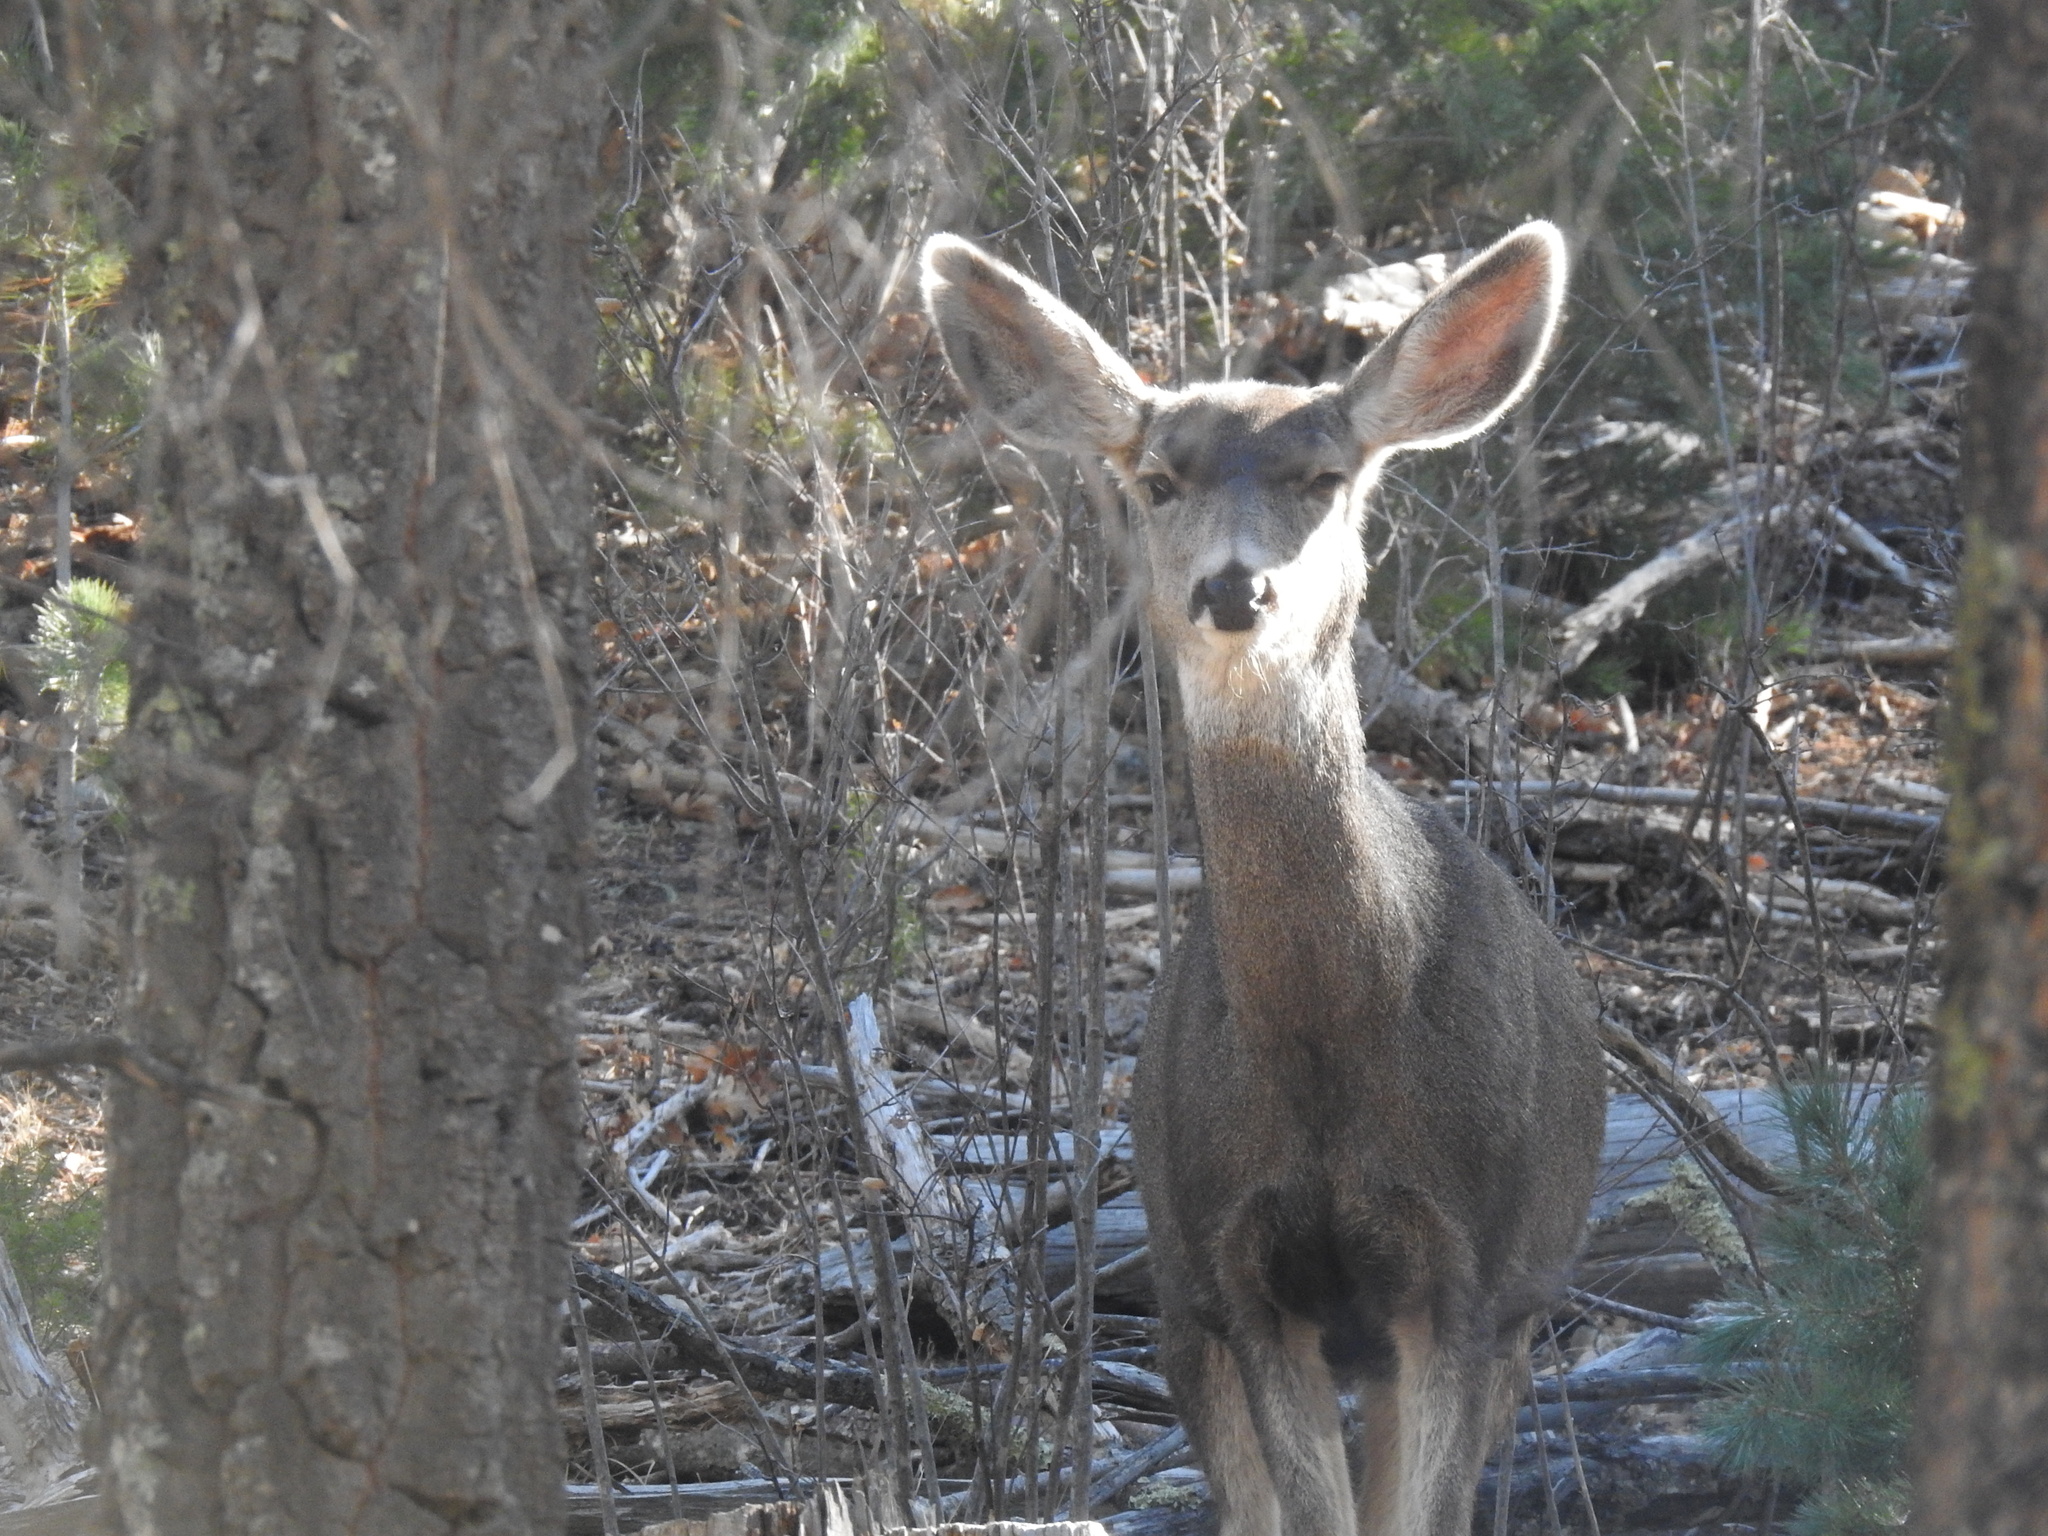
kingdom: Animalia
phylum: Chordata
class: Mammalia
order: Artiodactyla
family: Cervidae
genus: Odocoileus
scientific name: Odocoileus hemionus
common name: Mule deer
